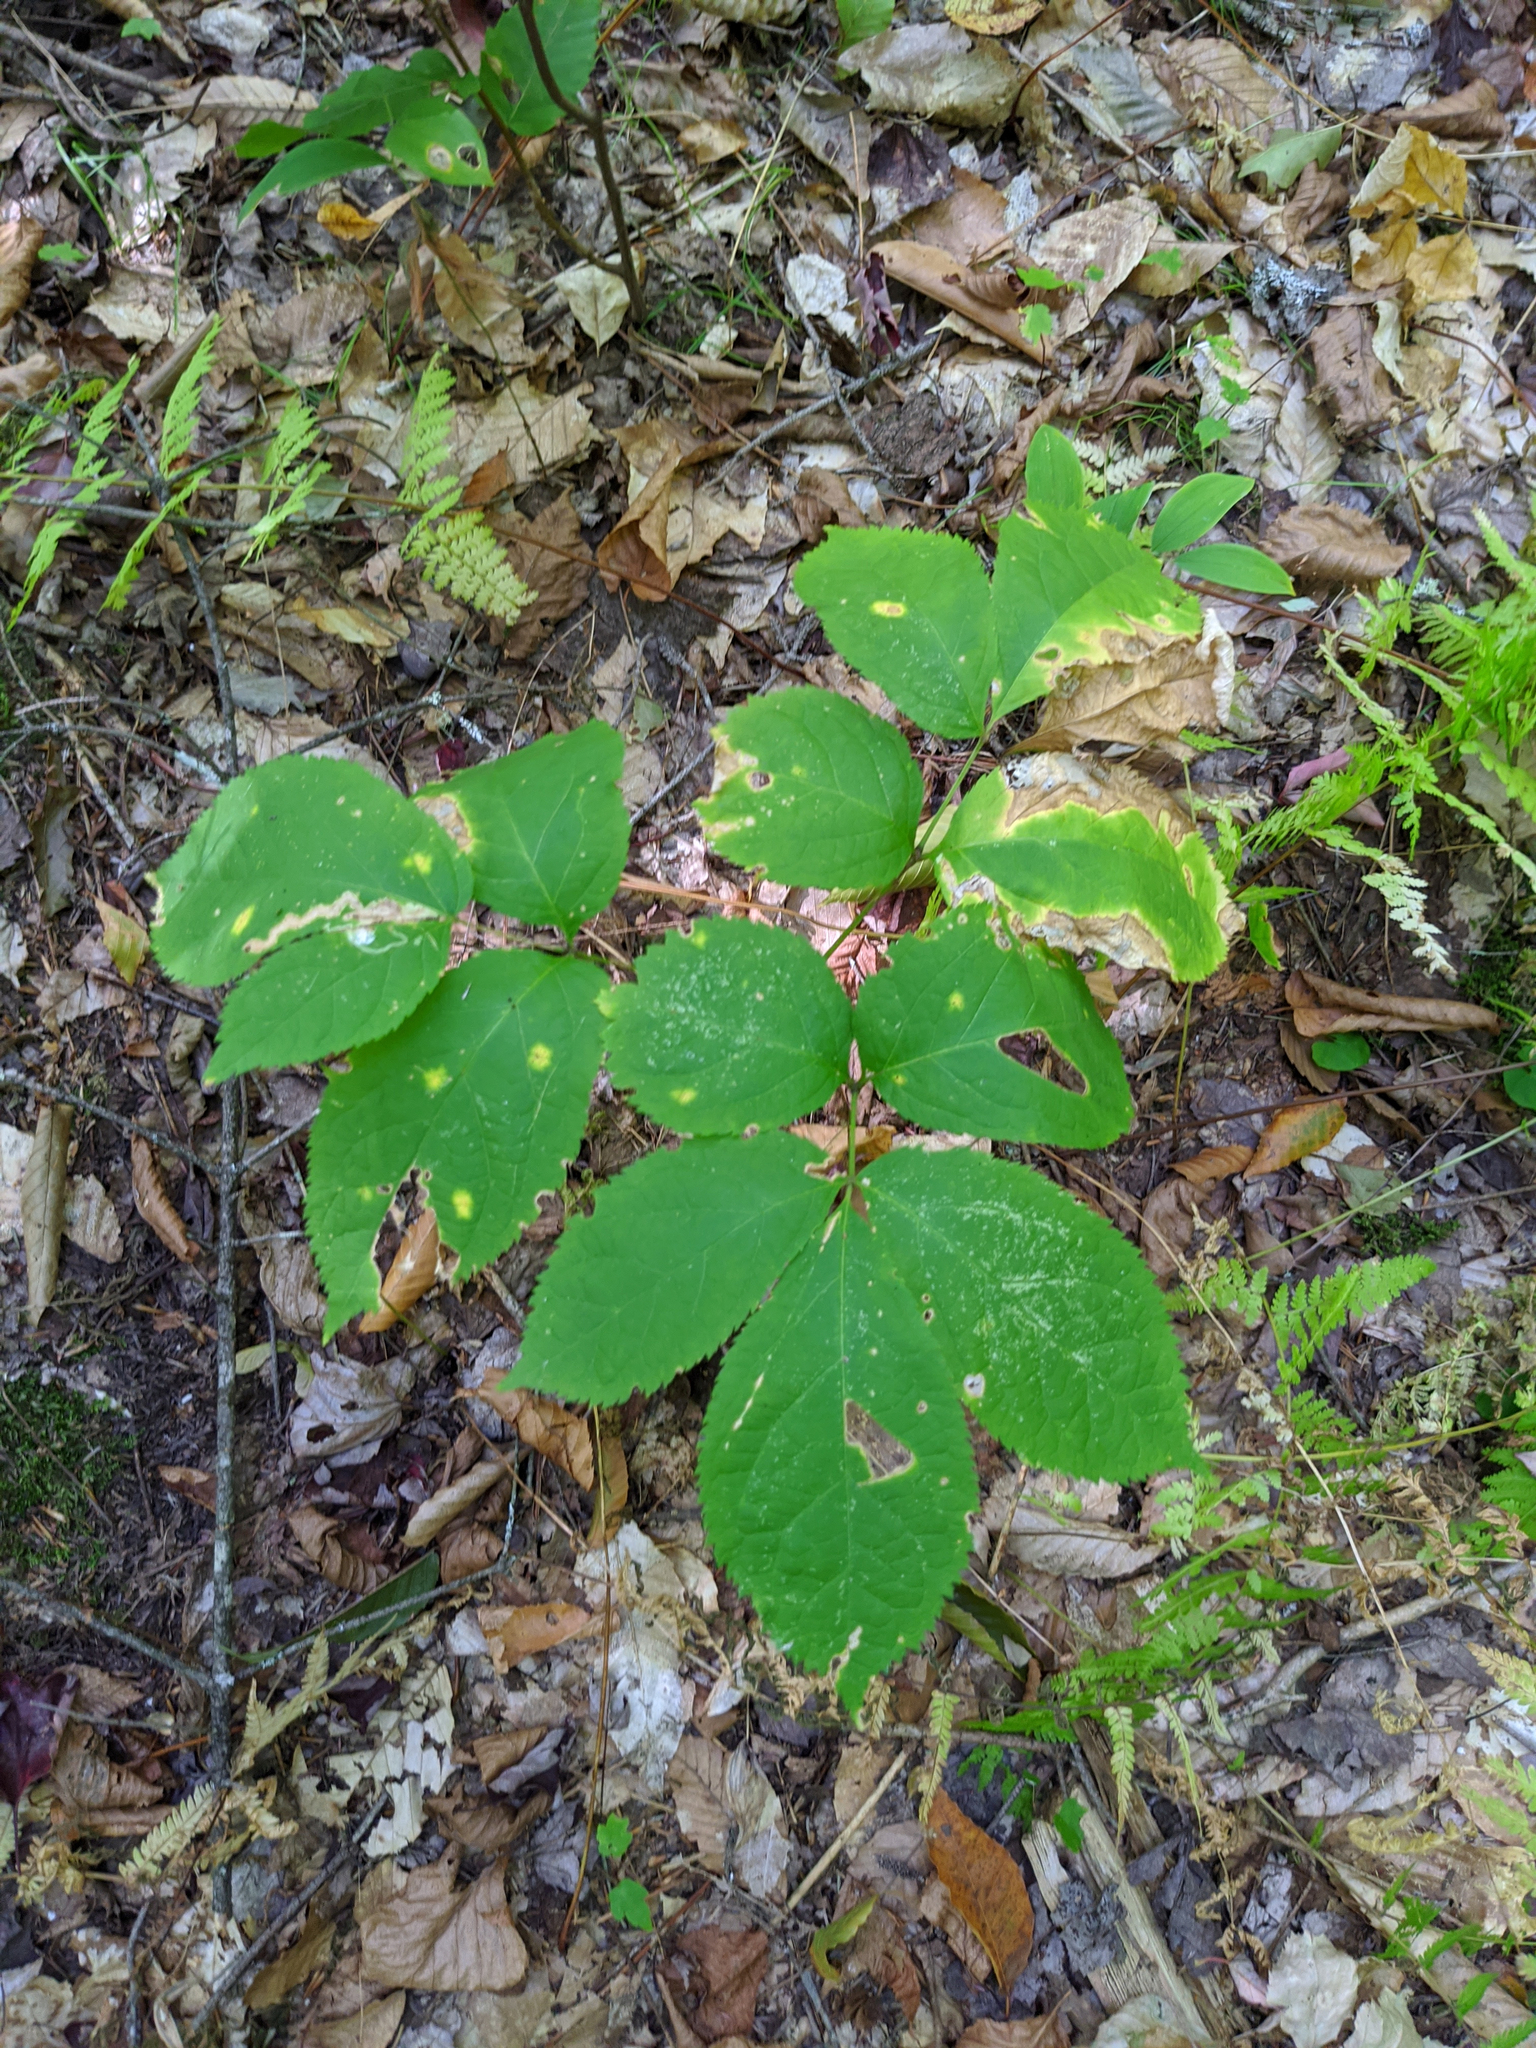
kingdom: Plantae
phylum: Tracheophyta
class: Magnoliopsida
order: Apiales
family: Araliaceae
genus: Aralia
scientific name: Aralia nudicaulis
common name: Wild sarsaparilla
